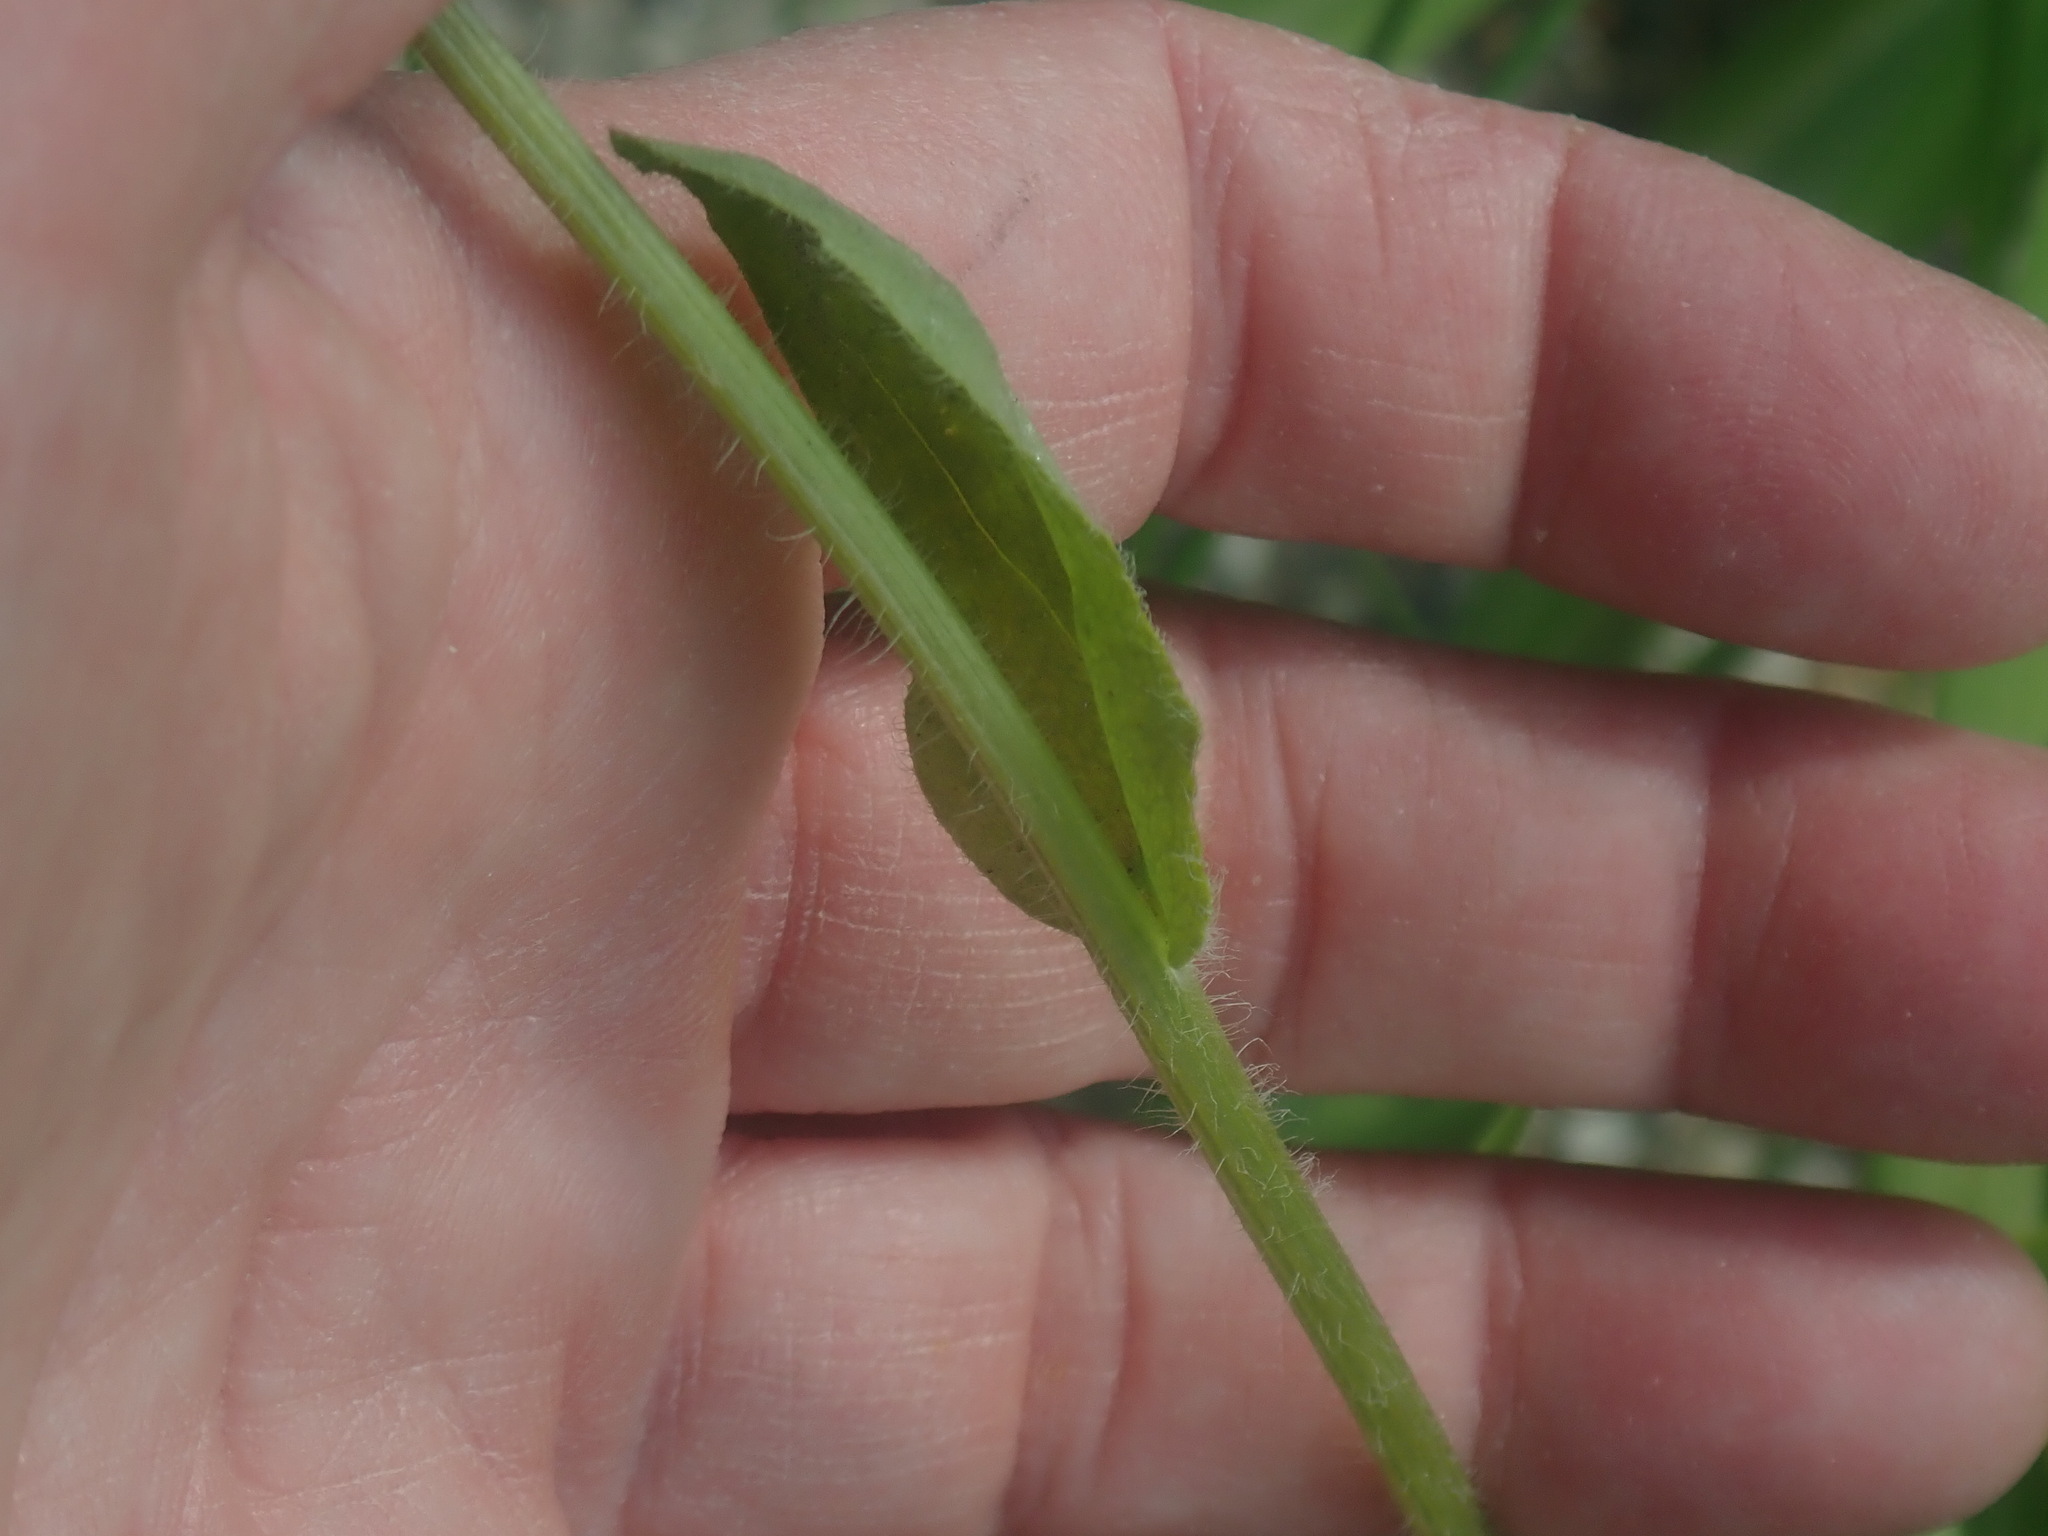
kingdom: Plantae
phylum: Tracheophyta
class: Magnoliopsida
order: Asterales
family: Asteraceae
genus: Erigeron
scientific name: Erigeron pulchellus
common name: Hairy fleabane
